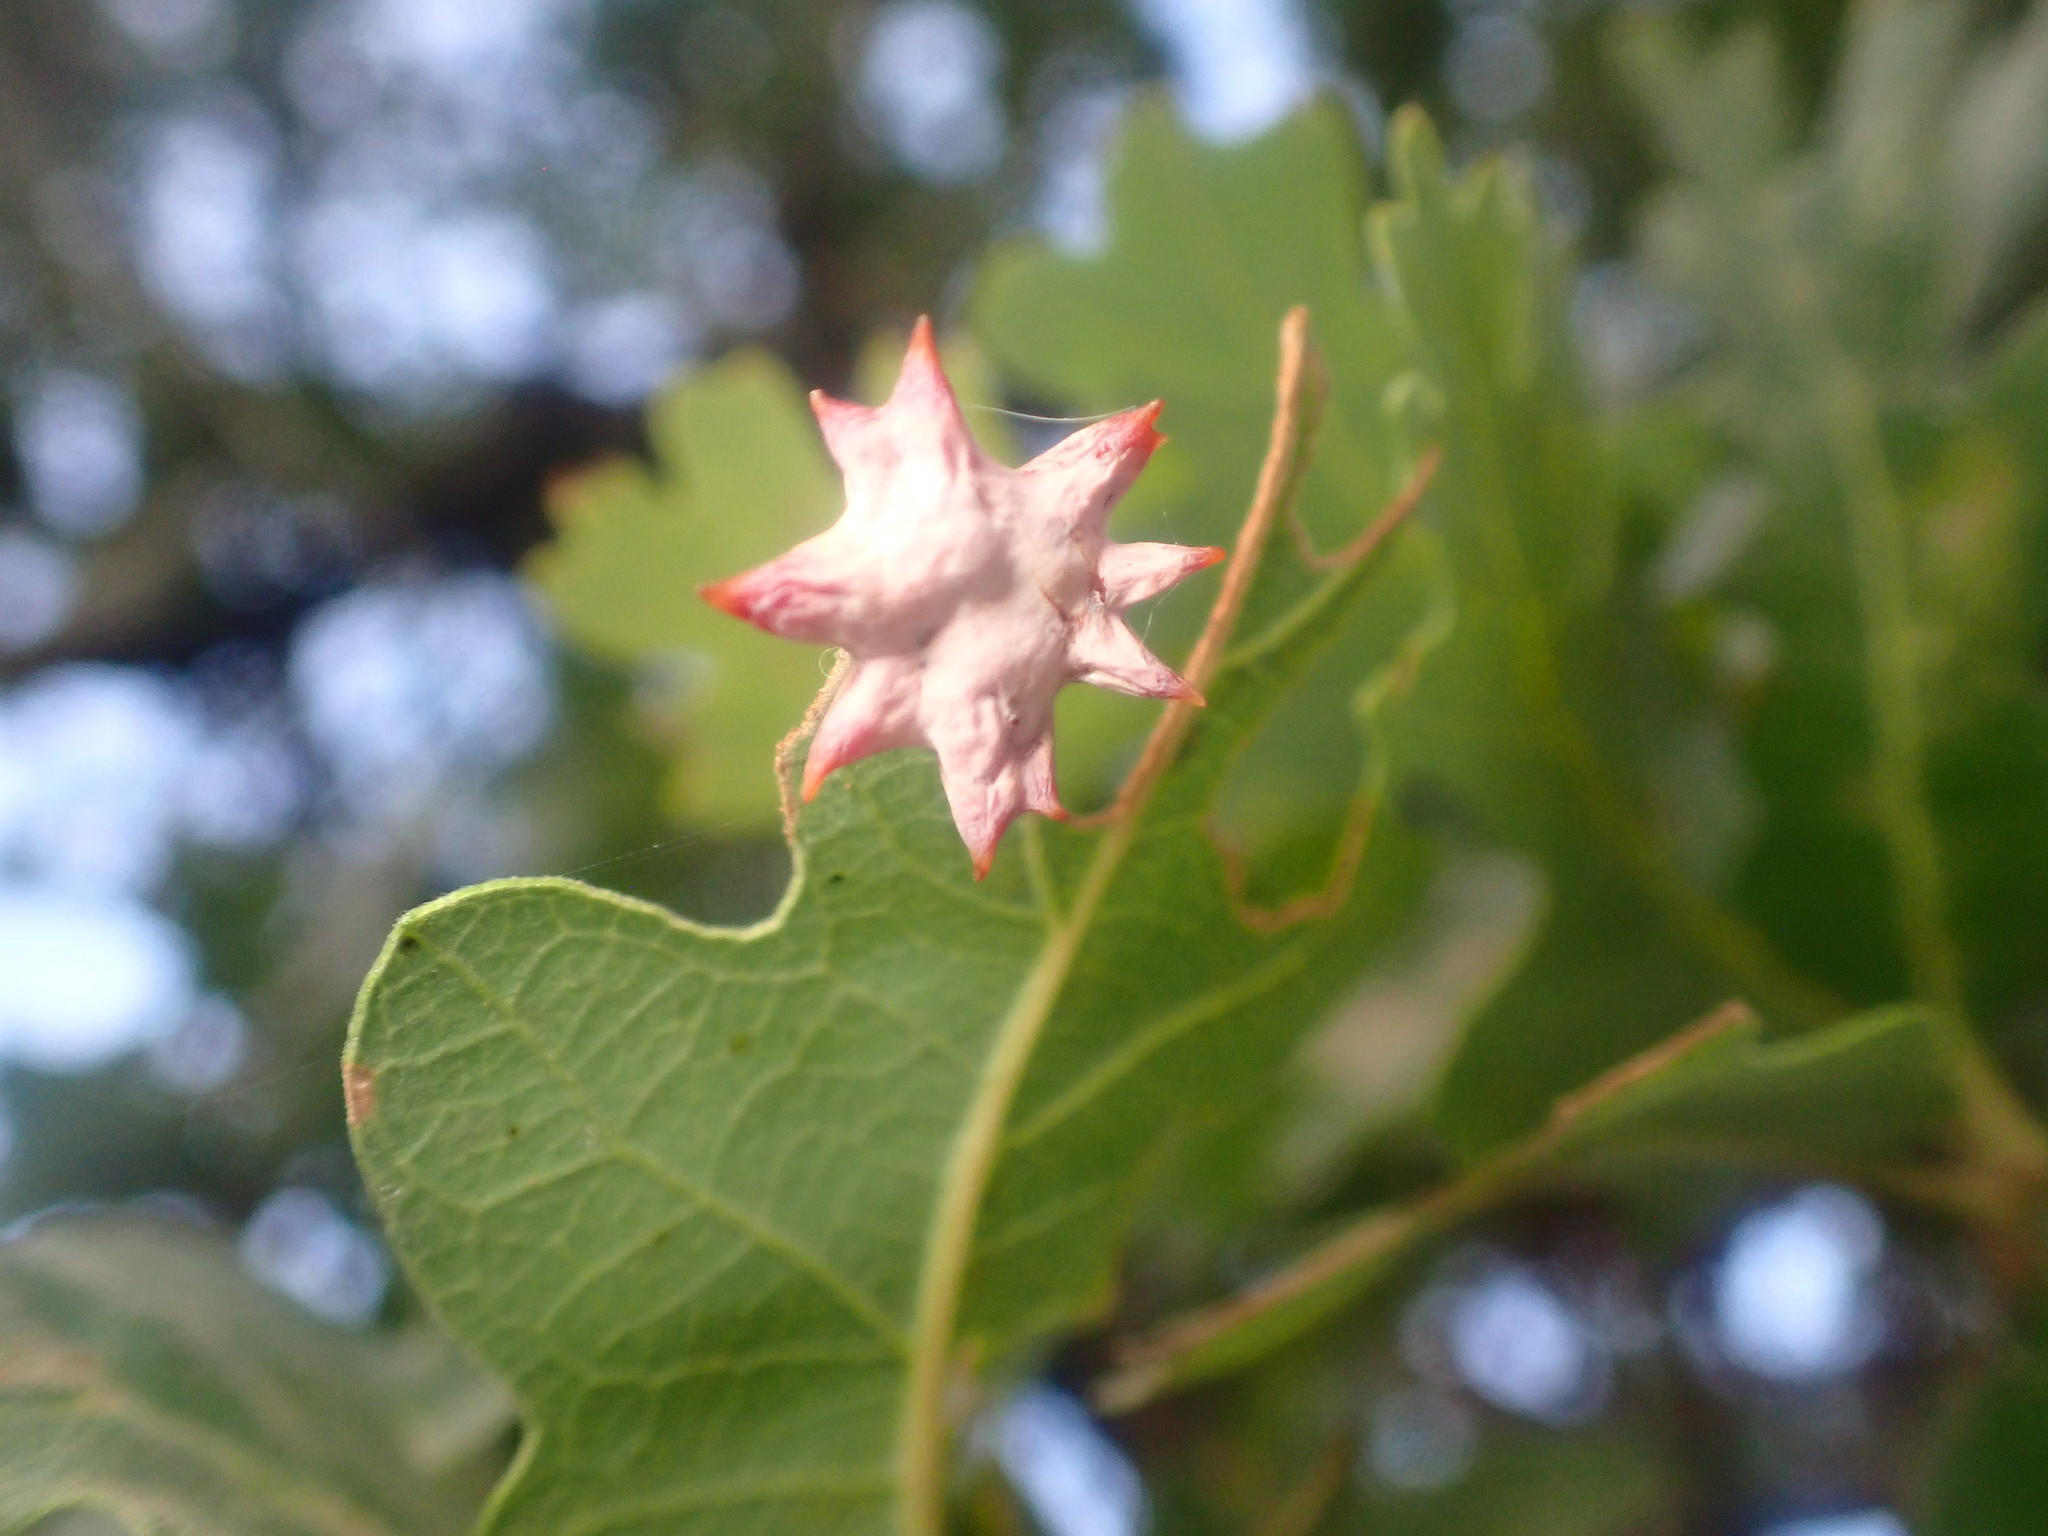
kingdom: Animalia
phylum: Arthropoda
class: Insecta
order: Hymenoptera
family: Cynipidae
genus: Cynips
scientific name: Cynips douglasi
